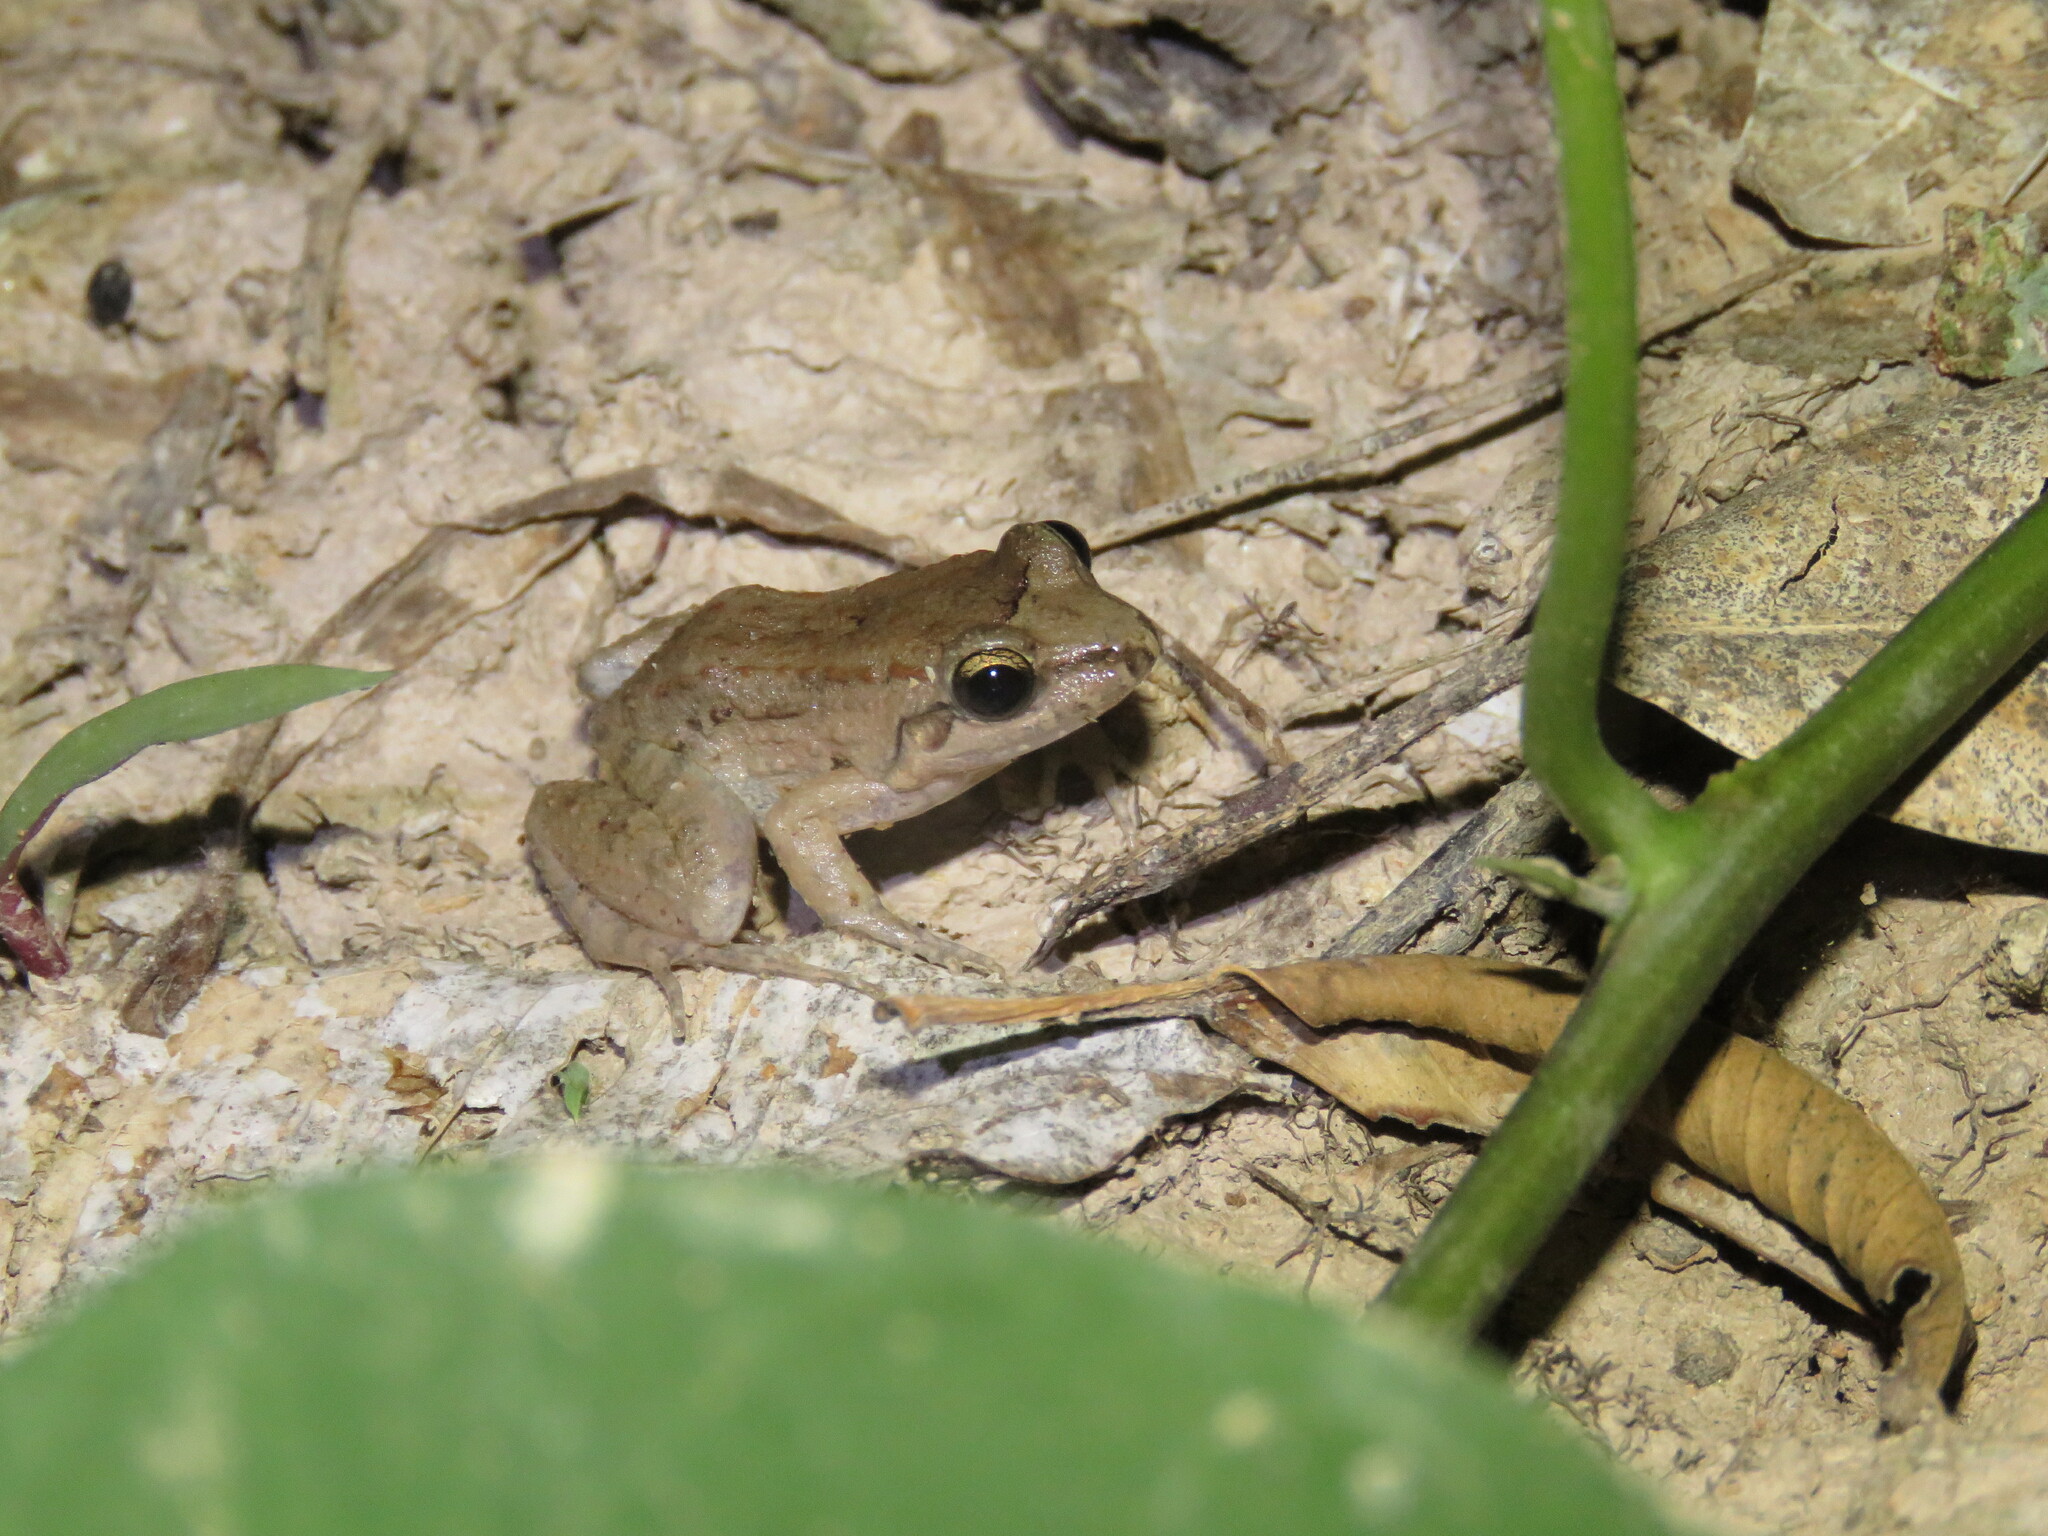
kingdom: Animalia
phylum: Chordata
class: Amphibia
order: Anura
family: Leptodactylidae
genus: Leptodactylus
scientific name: Leptodactylus leptodactyloides
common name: Common thin-toed frog
